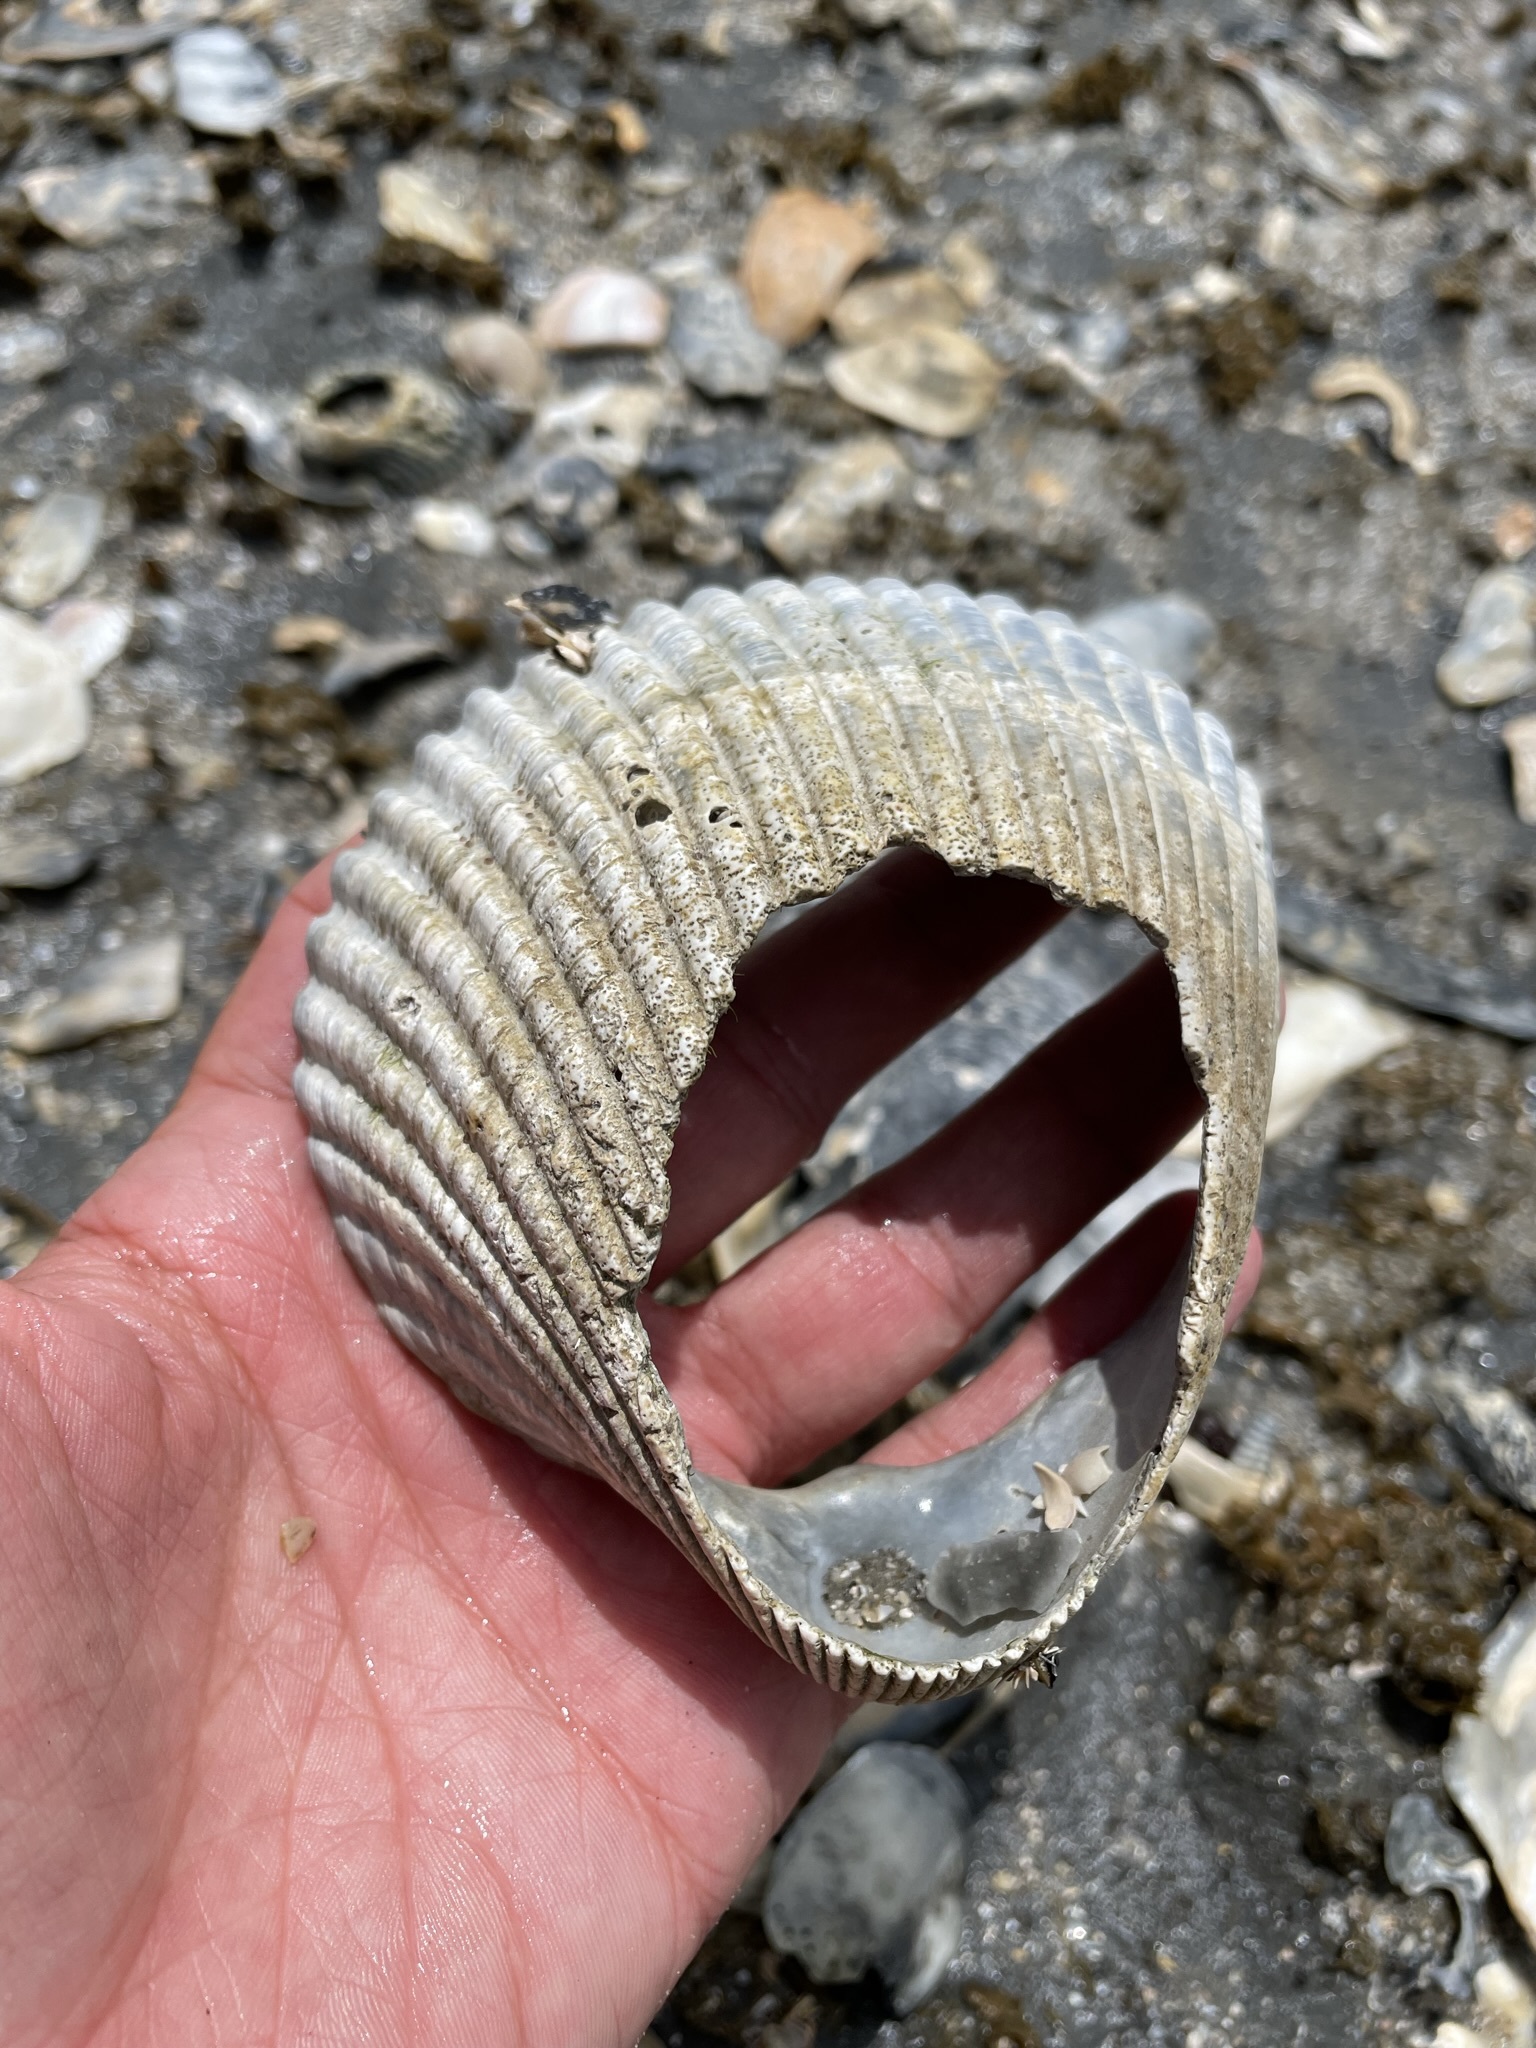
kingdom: Animalia
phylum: Mollusca
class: Bivalvia
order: Cardiida
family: Cardiidae
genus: Dinocardium
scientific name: Dinocardium robustum
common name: Atlantic giant cockle
